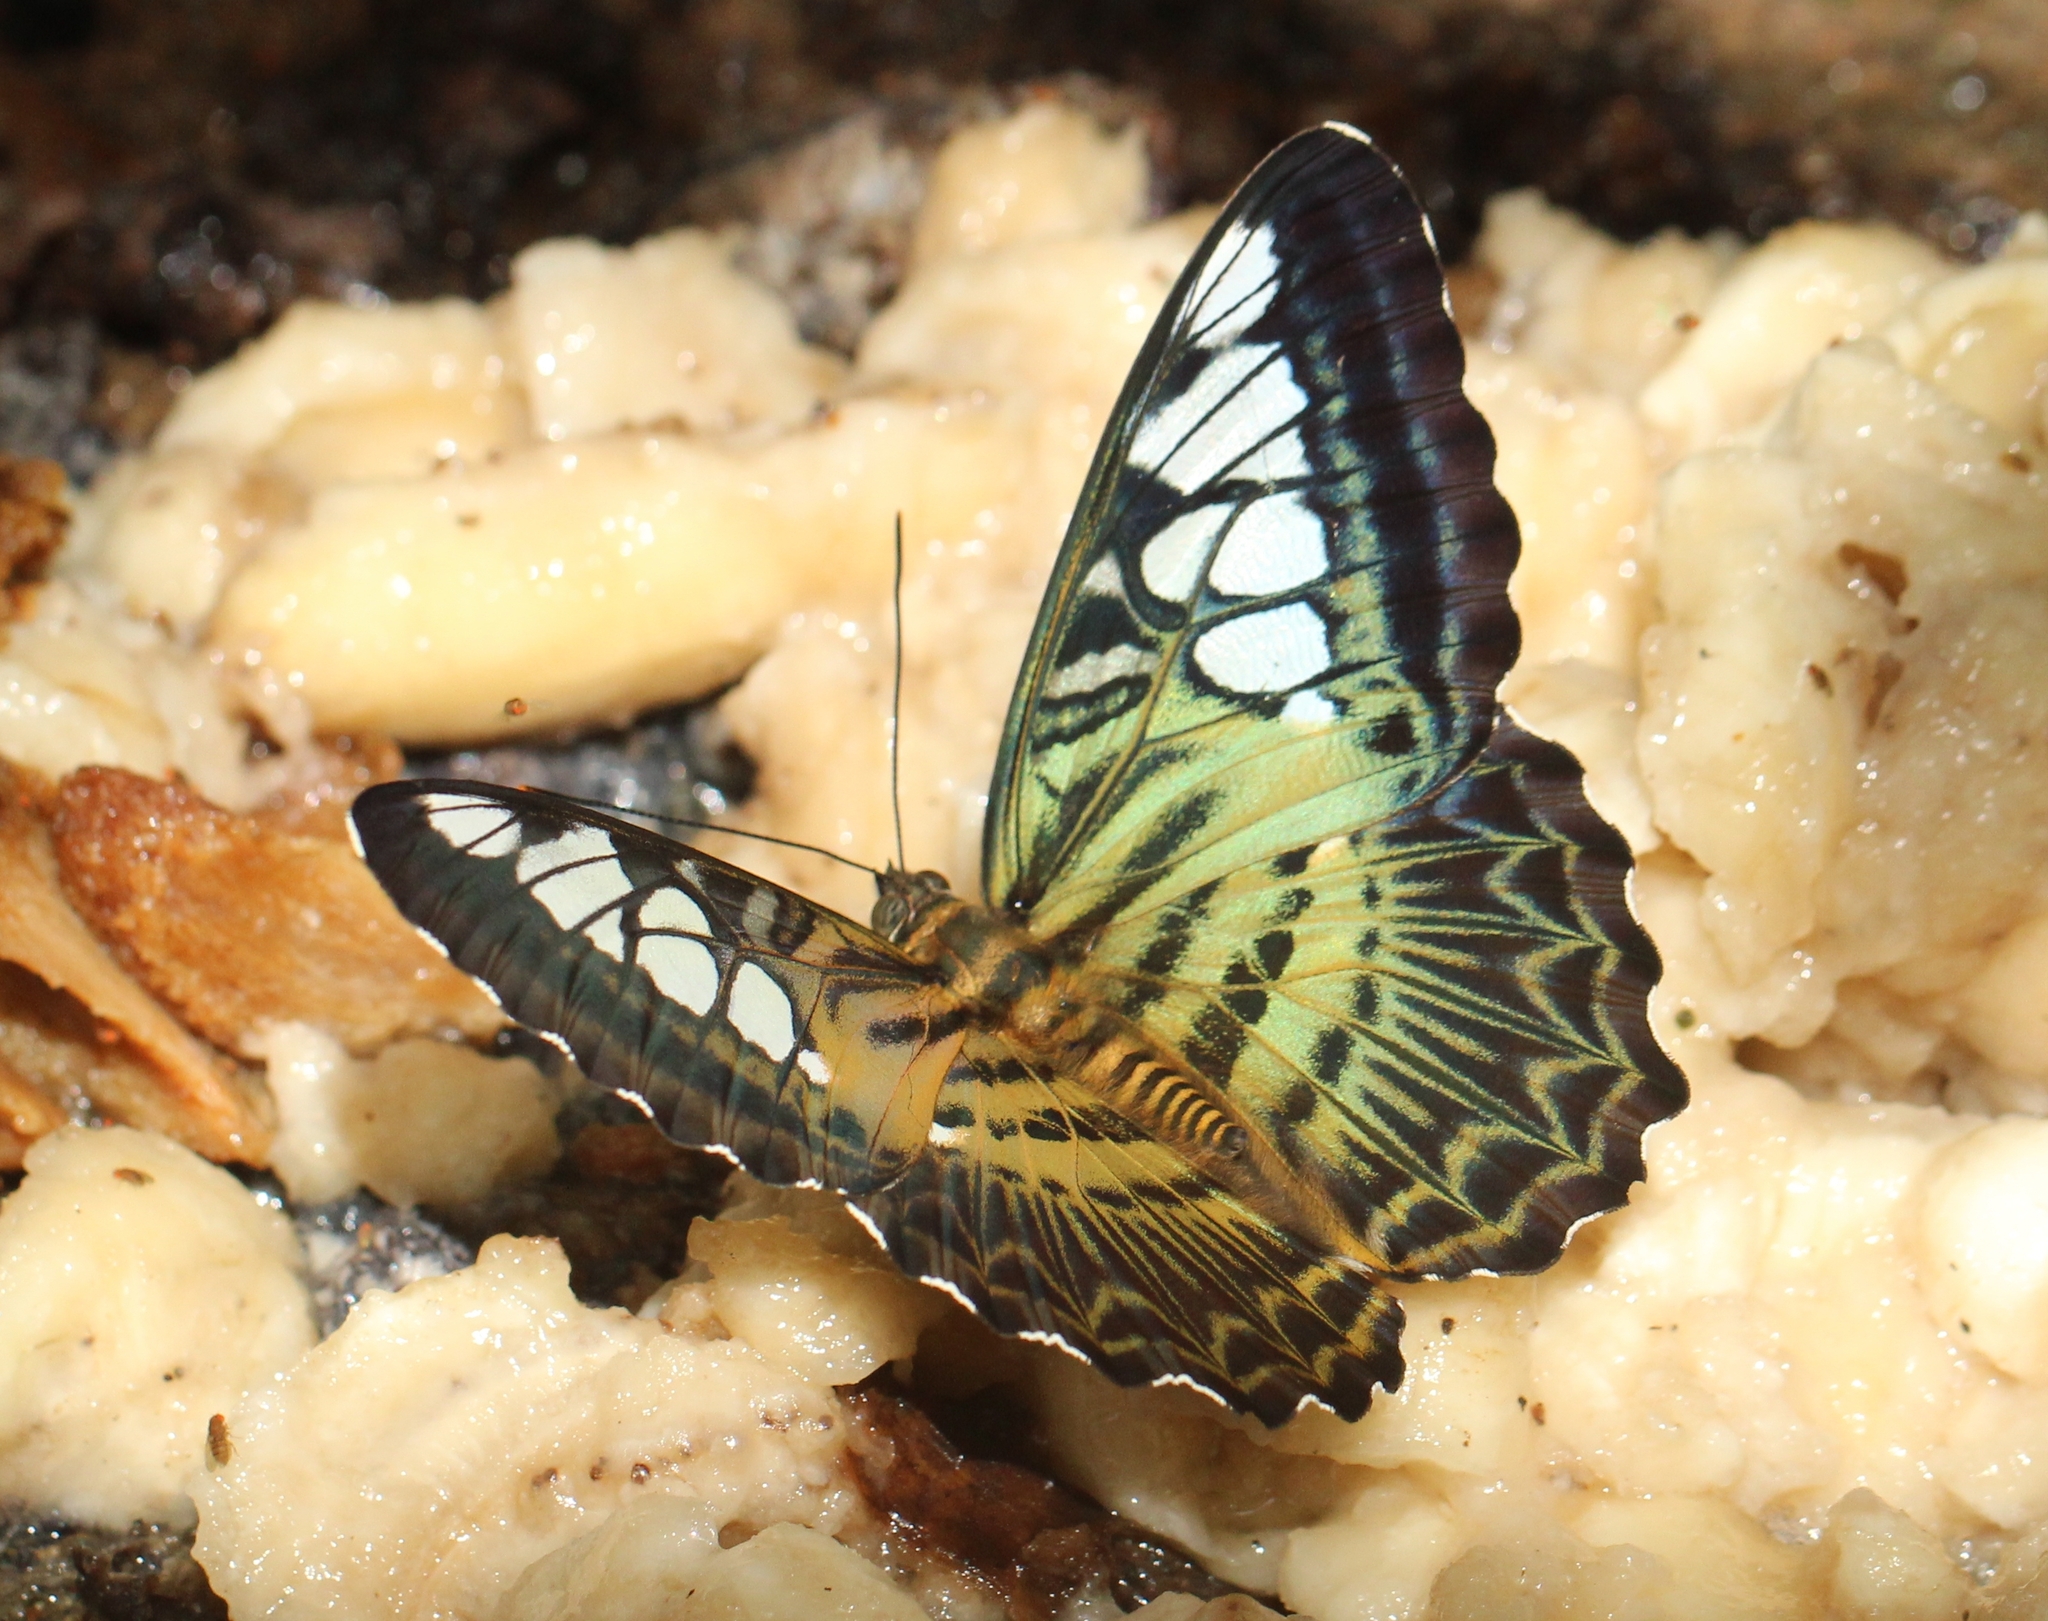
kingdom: Animalia
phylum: Arthropoda
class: Insecta
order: Lepidoptera
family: Nymphalidae
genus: Kallima
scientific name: Kallima sylvia
